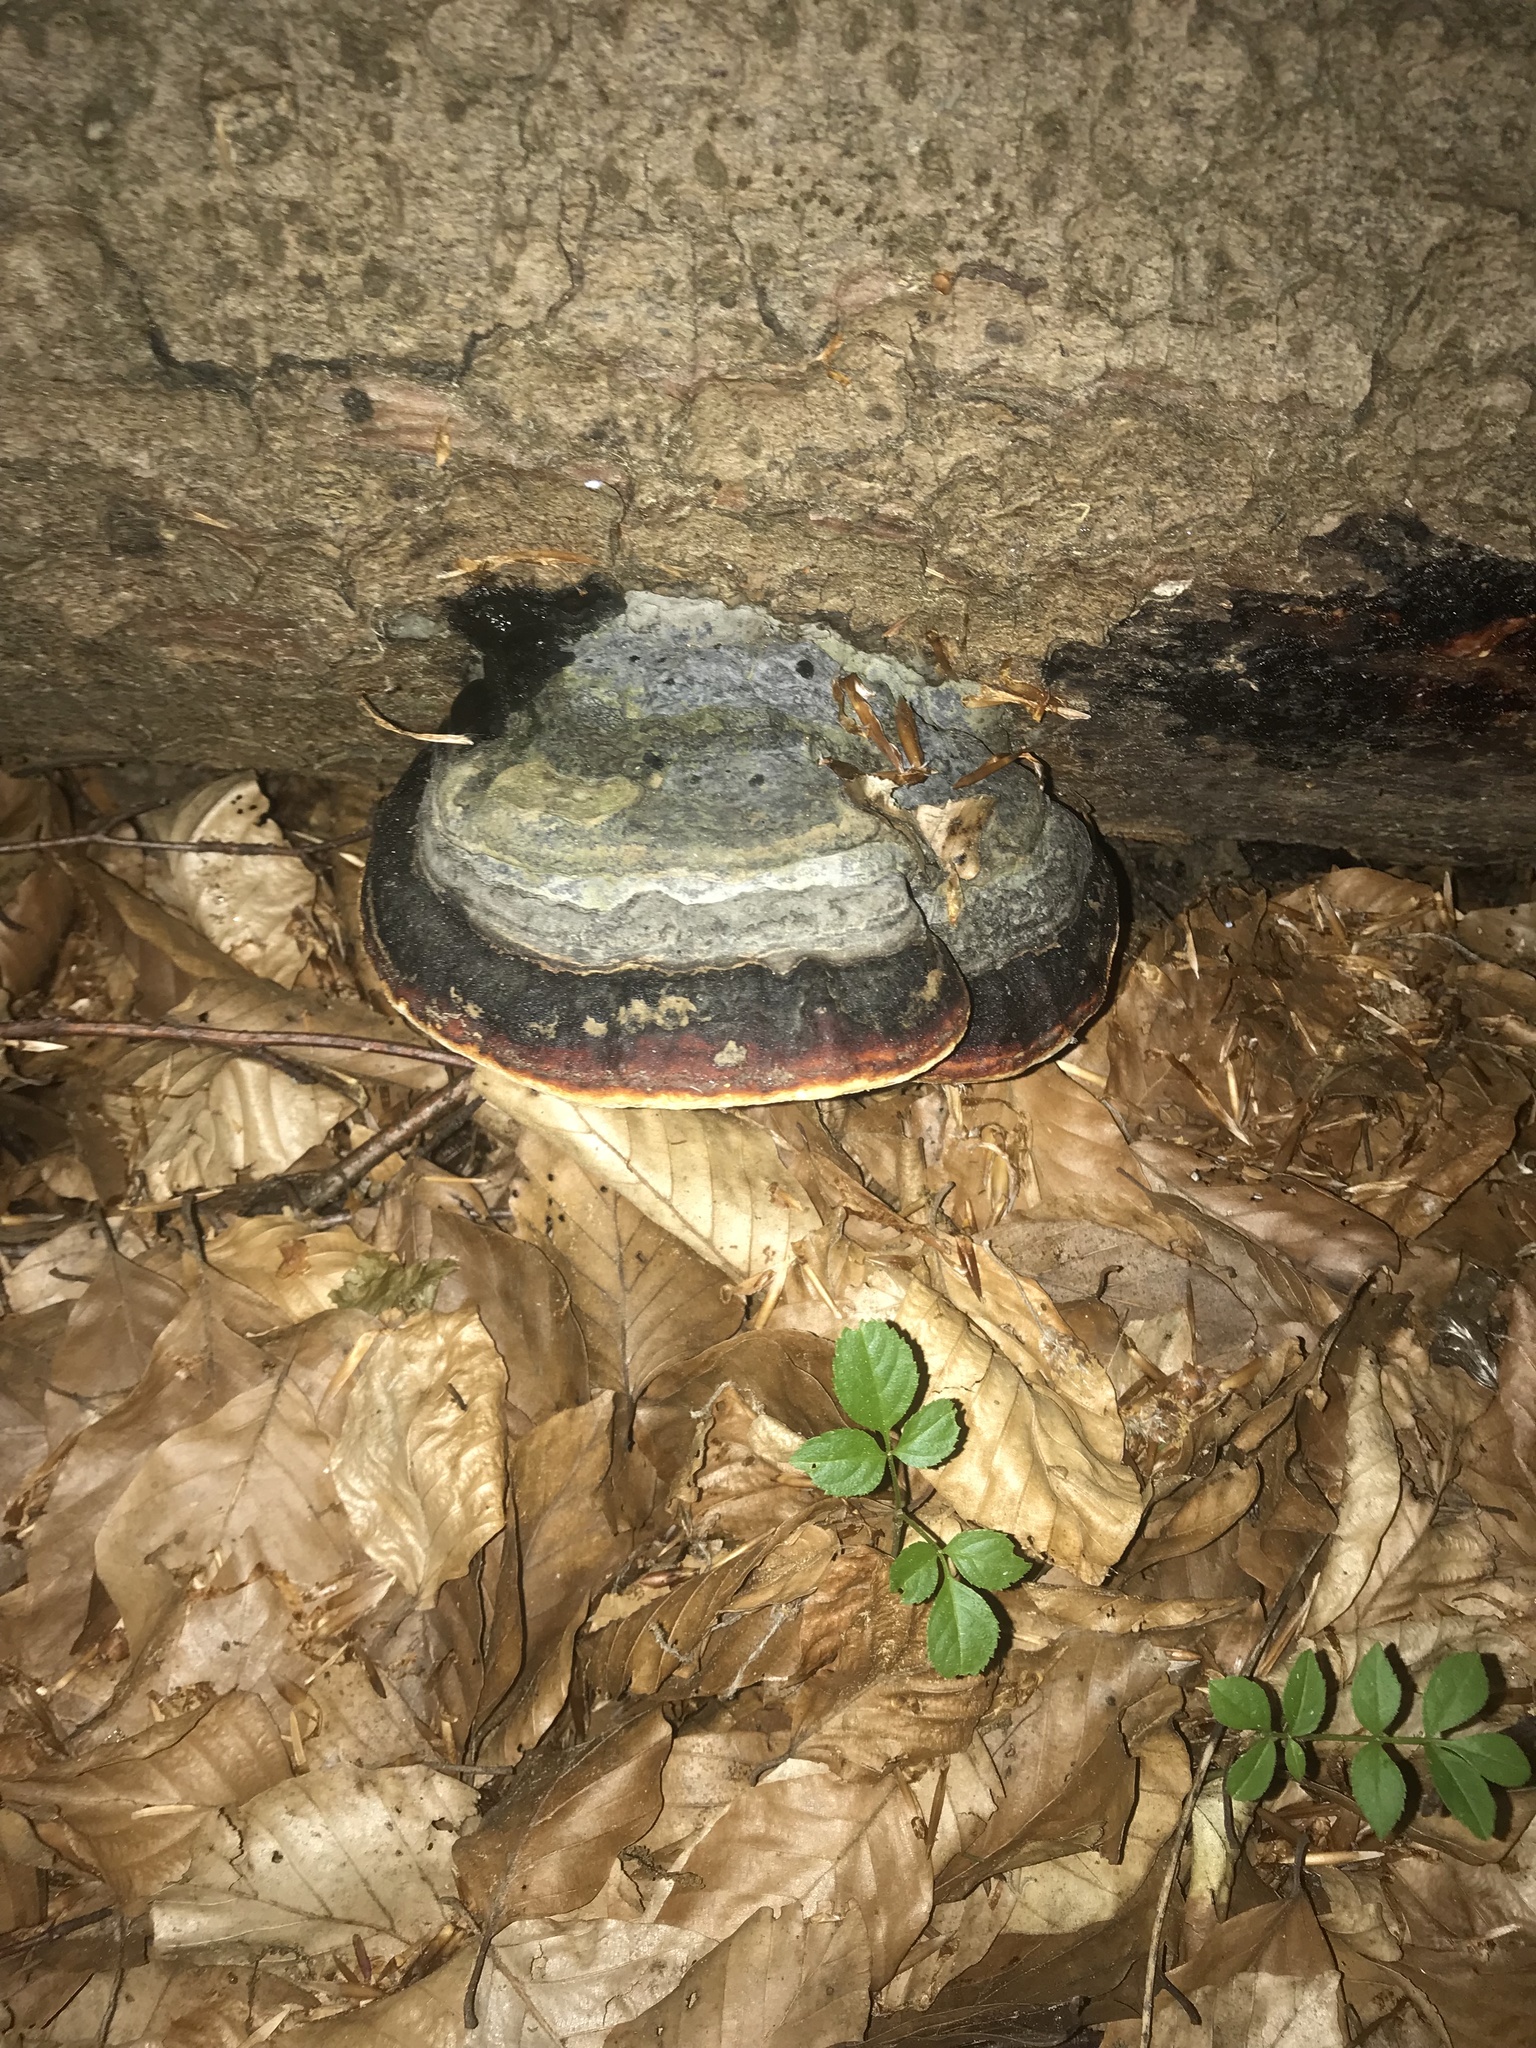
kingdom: Fungi
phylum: Basidiomycota
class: Agaricomycetes
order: Polyporales
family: Fomitopsidaceae
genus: Fomitopsis
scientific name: Fomitopsis pinicola
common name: Red-belted bracket
